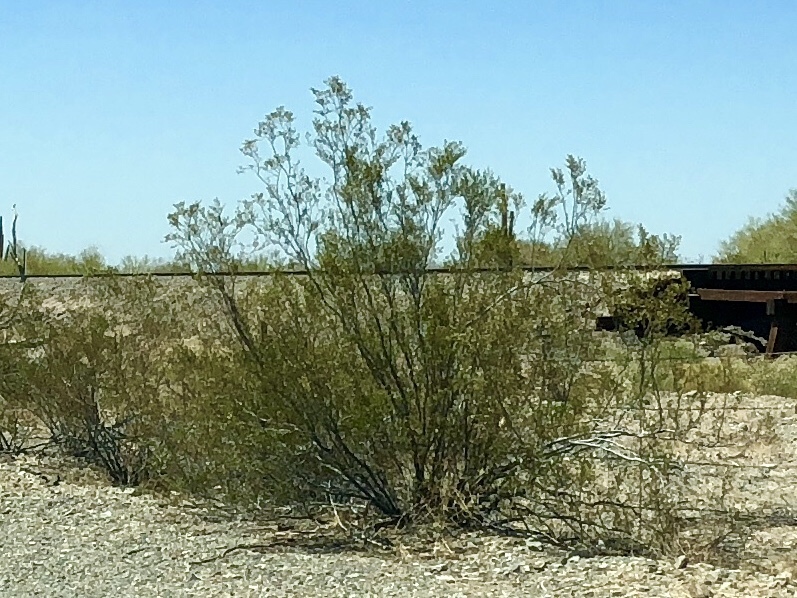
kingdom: Plantae
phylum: Tracheophyta
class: Magnoliopsida
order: Zygophyllales
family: Zygophyllaceae
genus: Larrea
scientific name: Larrea tridentata
